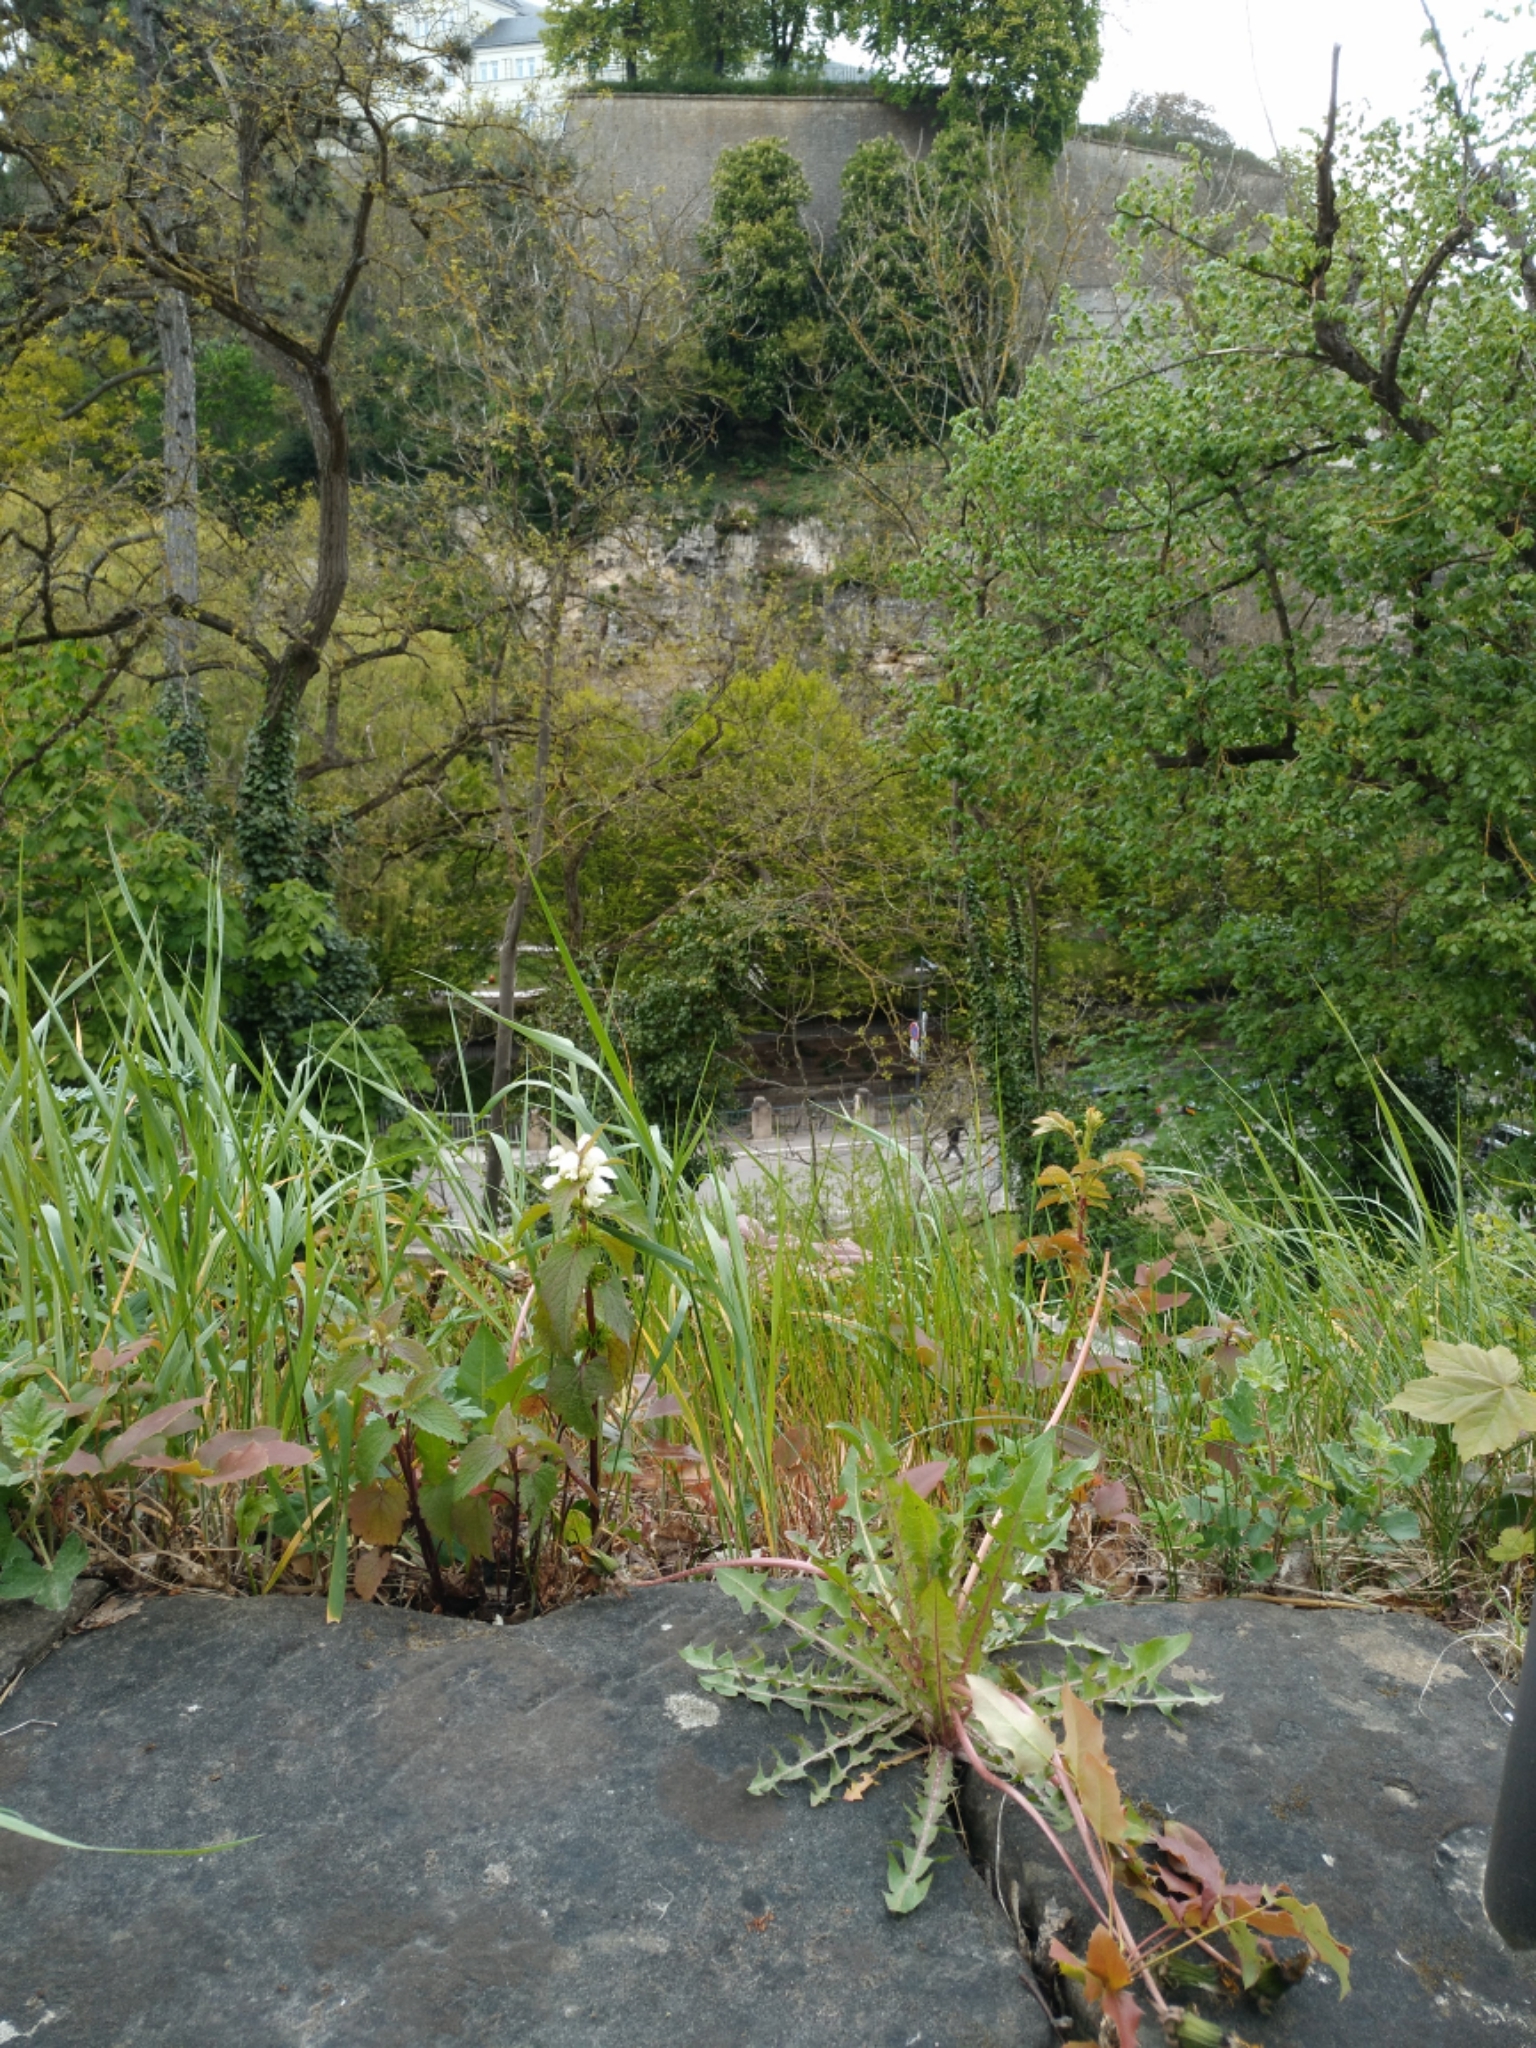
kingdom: Plantae
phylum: Tracheophyta
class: Magnoliopsida
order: Lamiales
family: Lamiaceae
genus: Lamium
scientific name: Lamium album
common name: White dead-nettle
